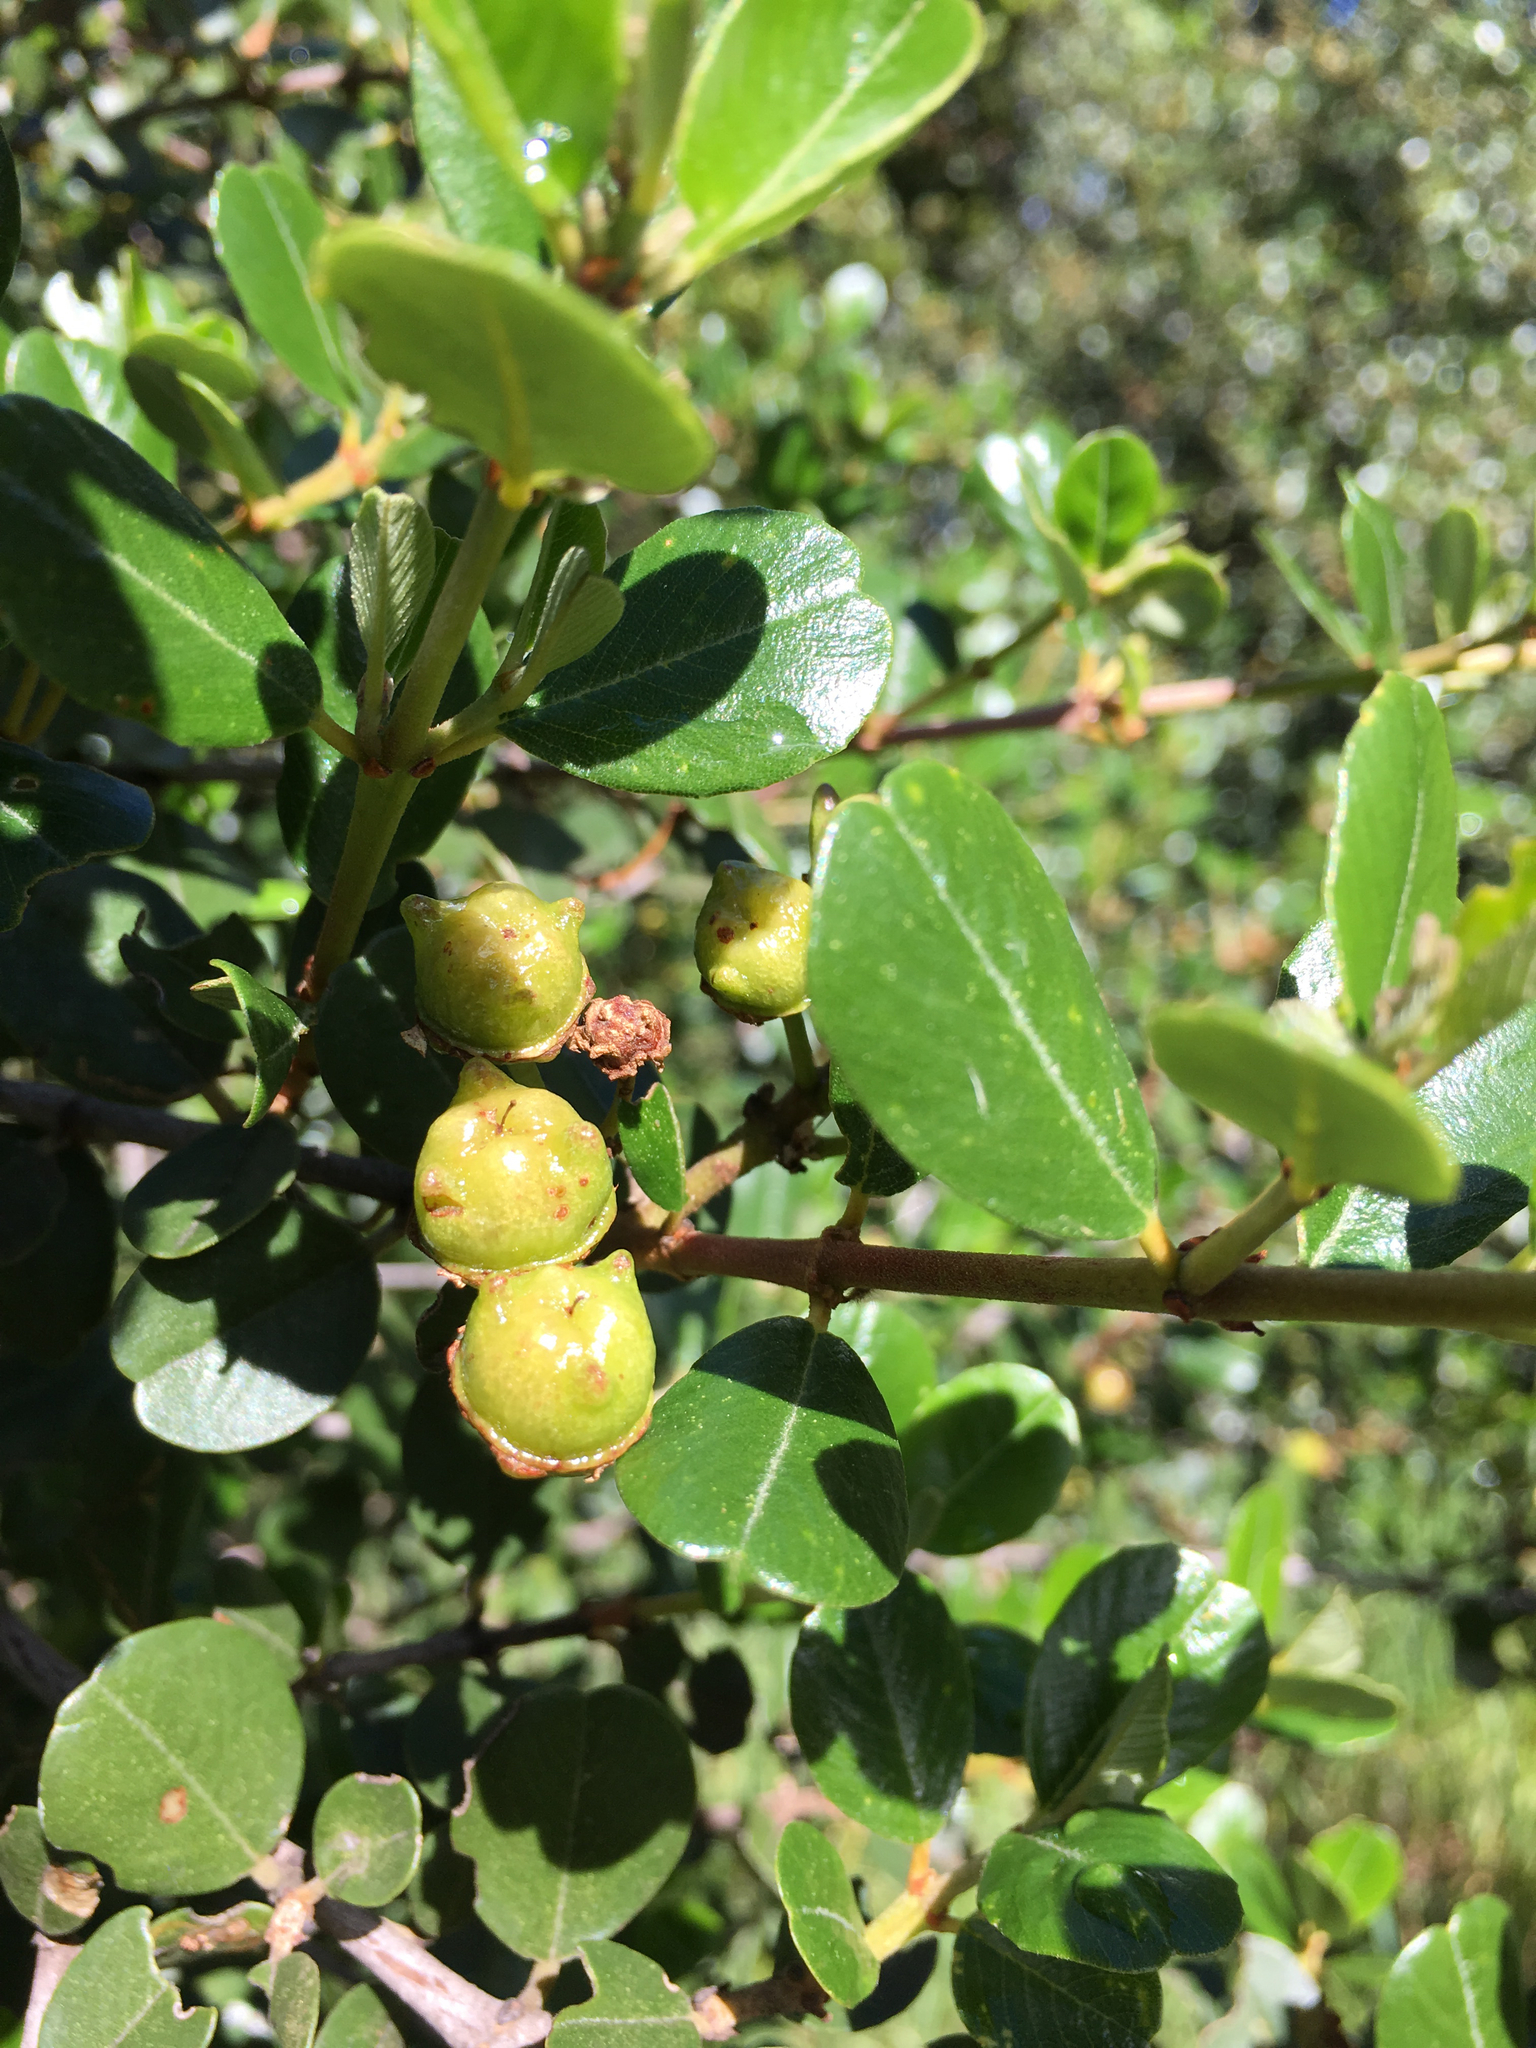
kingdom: Plantae
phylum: Tracheophyta
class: Magnoliopsida
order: Rosales
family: Rhamnaceae
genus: Ceanothus
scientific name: Ceanothus megacarpus
